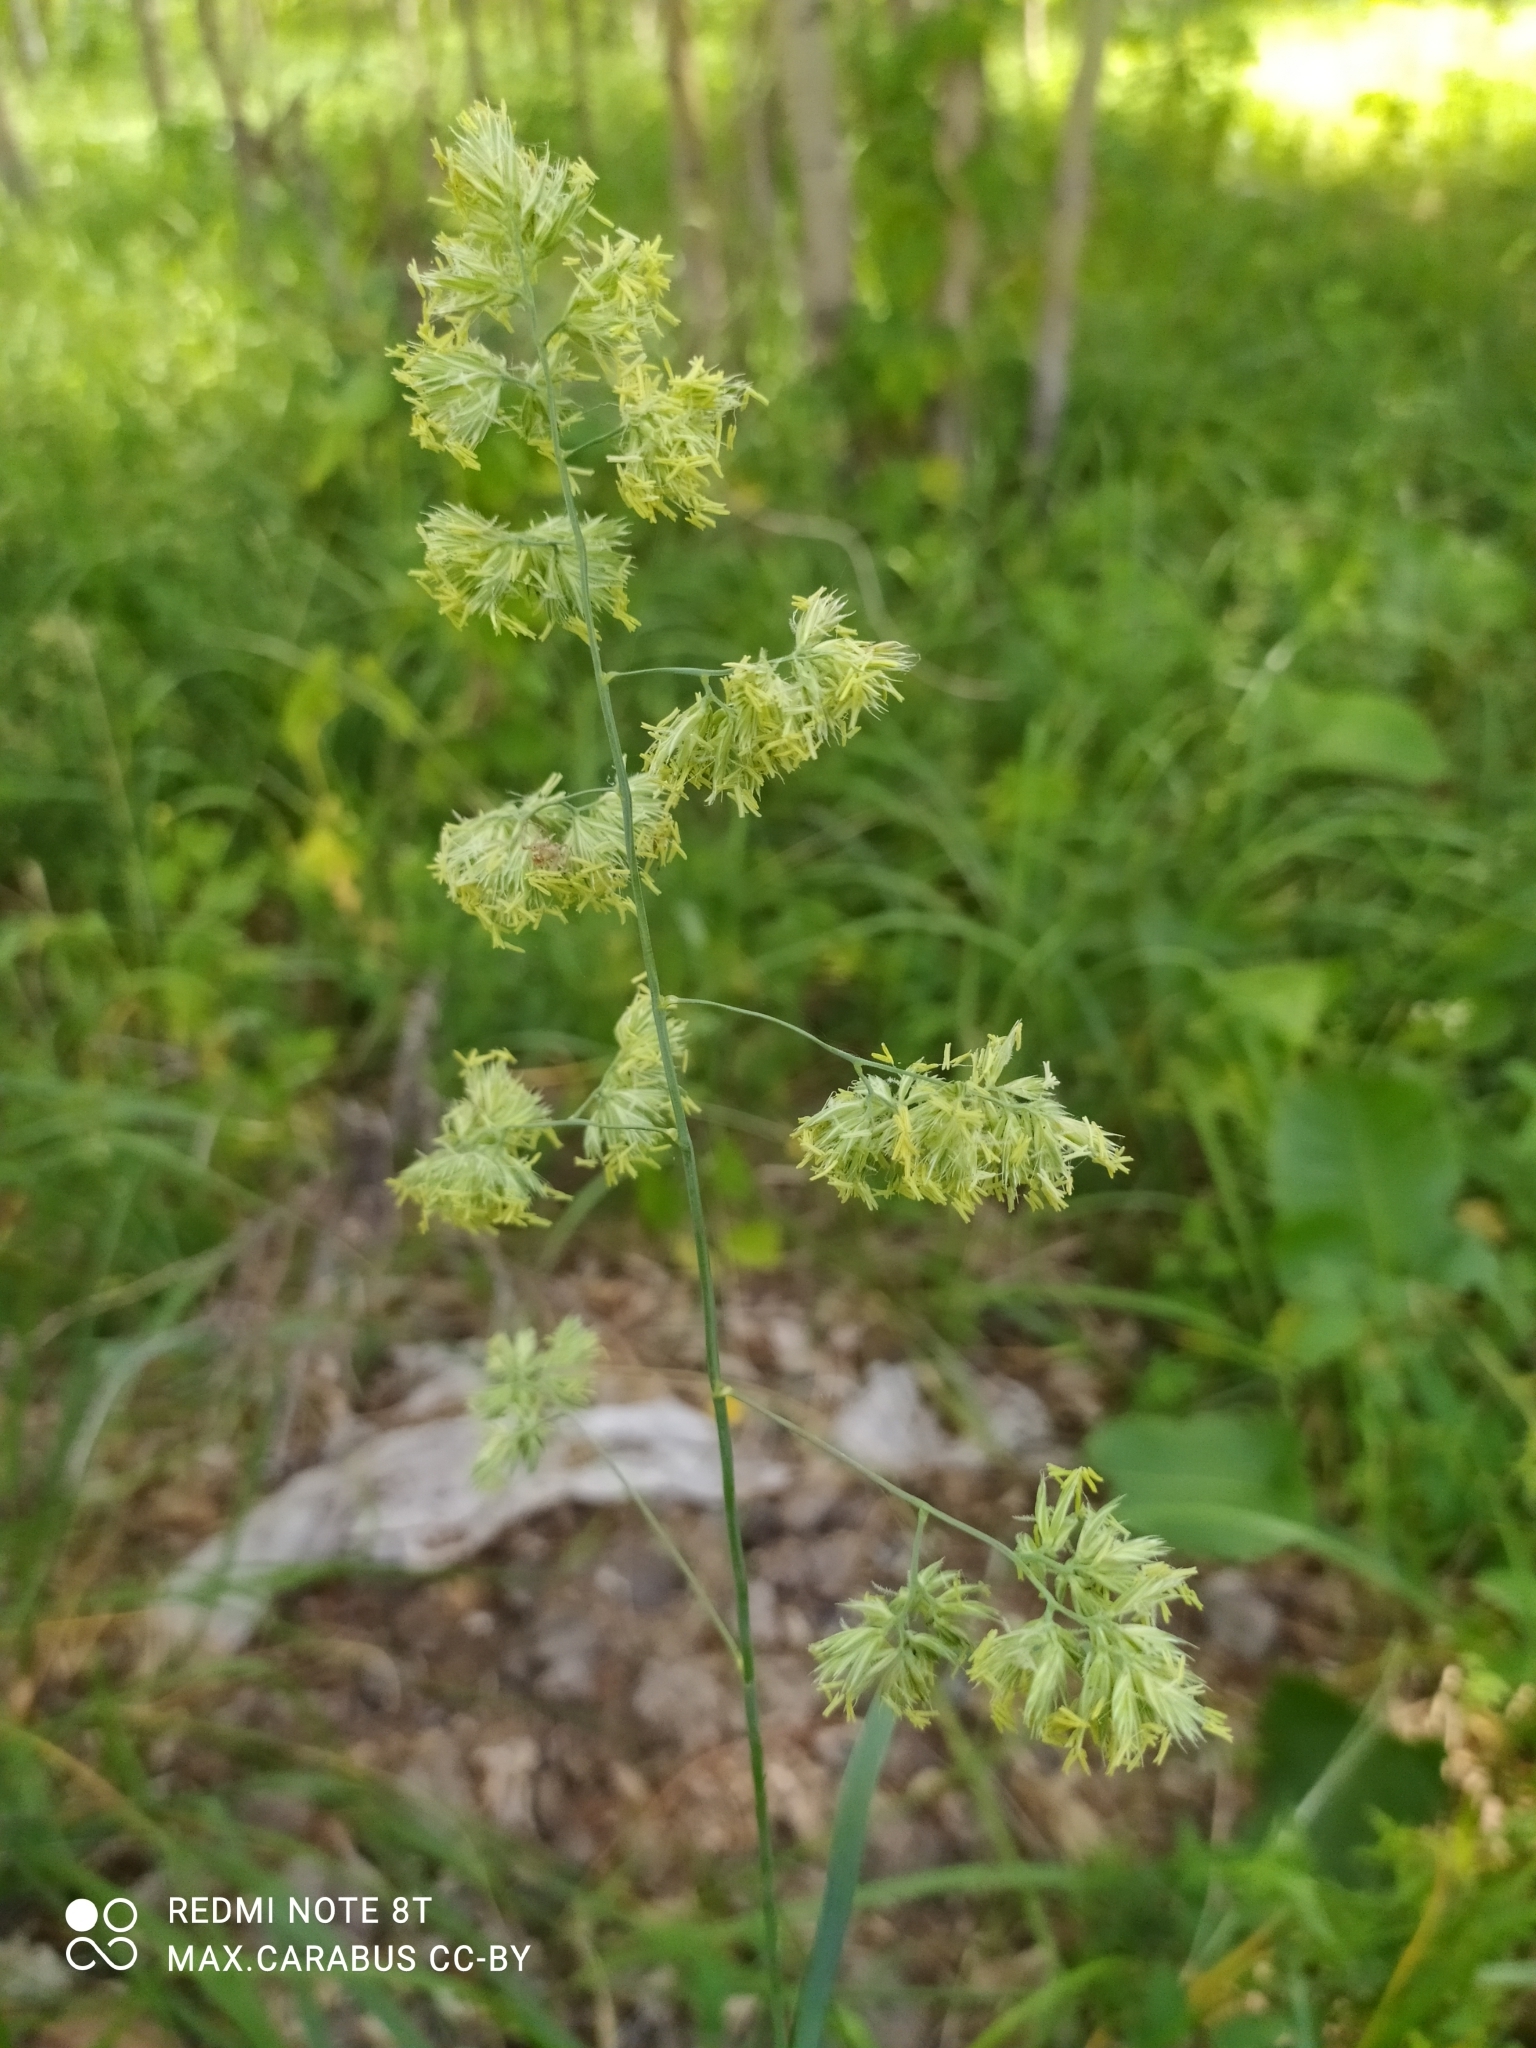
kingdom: Plantae
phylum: Tracheophyta
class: Liliopsida
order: Poales
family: Poaceae
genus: Dactylis
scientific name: Dactylis glomerata
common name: Orchardgrass
